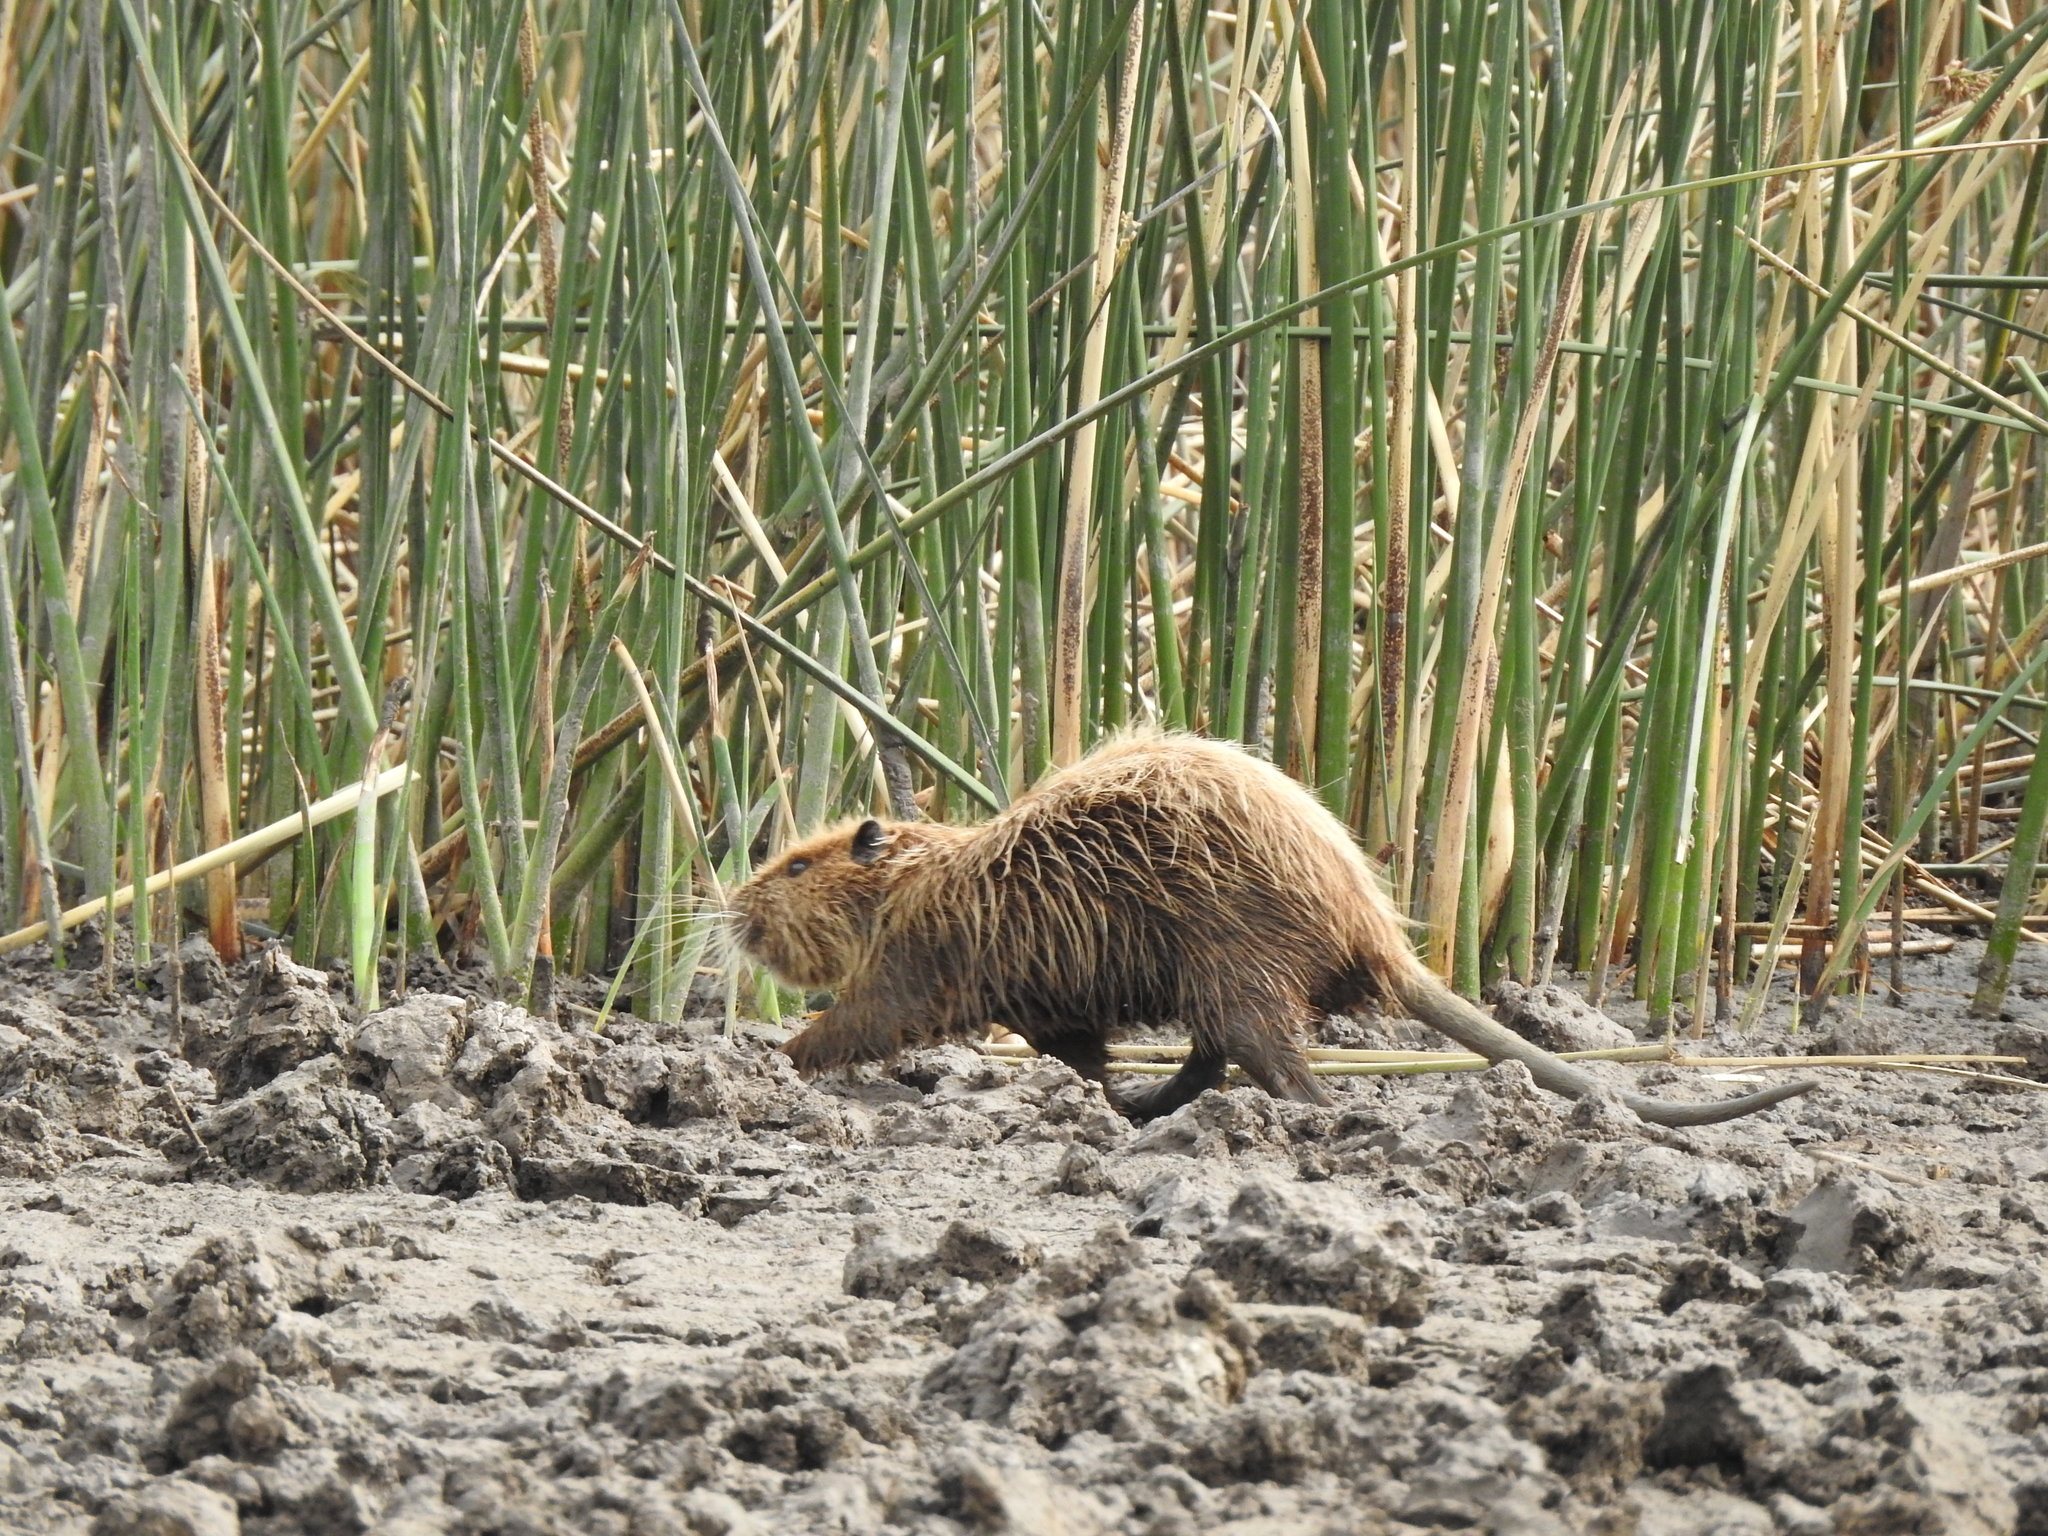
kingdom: Animalia
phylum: Chordata
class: Mammalia
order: Rodentia
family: Myocastoridae
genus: Myocastor
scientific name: Myocastor coypus
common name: Coypu
